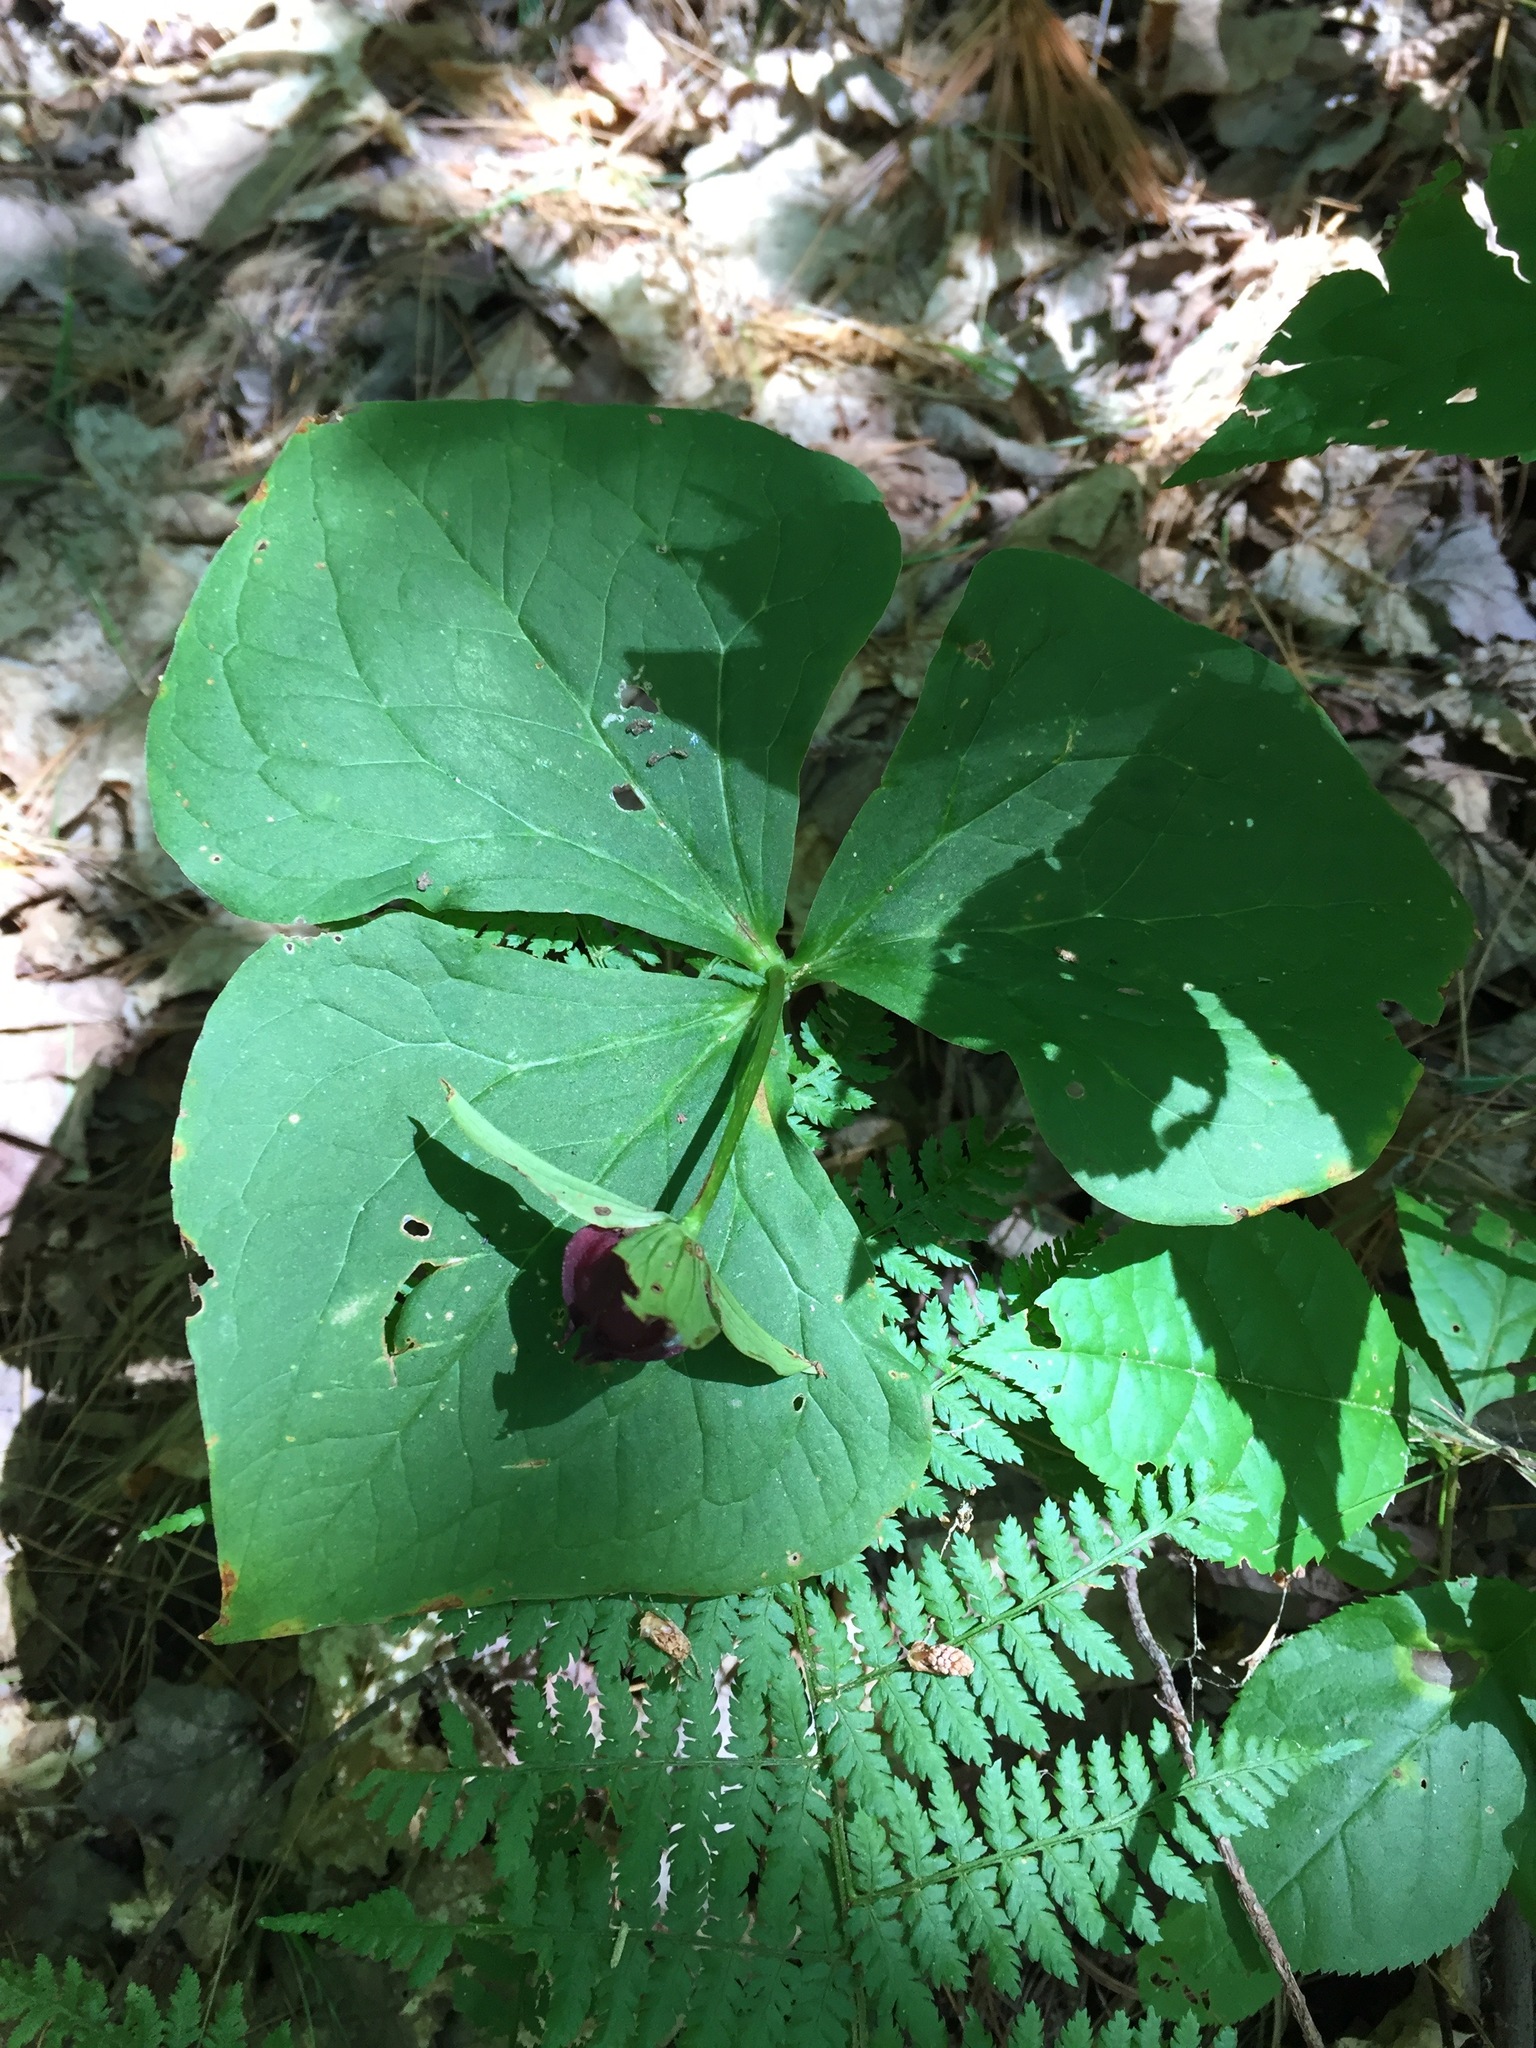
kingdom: Plantae
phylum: Tracheophyta
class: Liliopsida
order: Liliales
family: Melanthiaceae
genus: Trillium
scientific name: Trillium erectum
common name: Purple trillium
